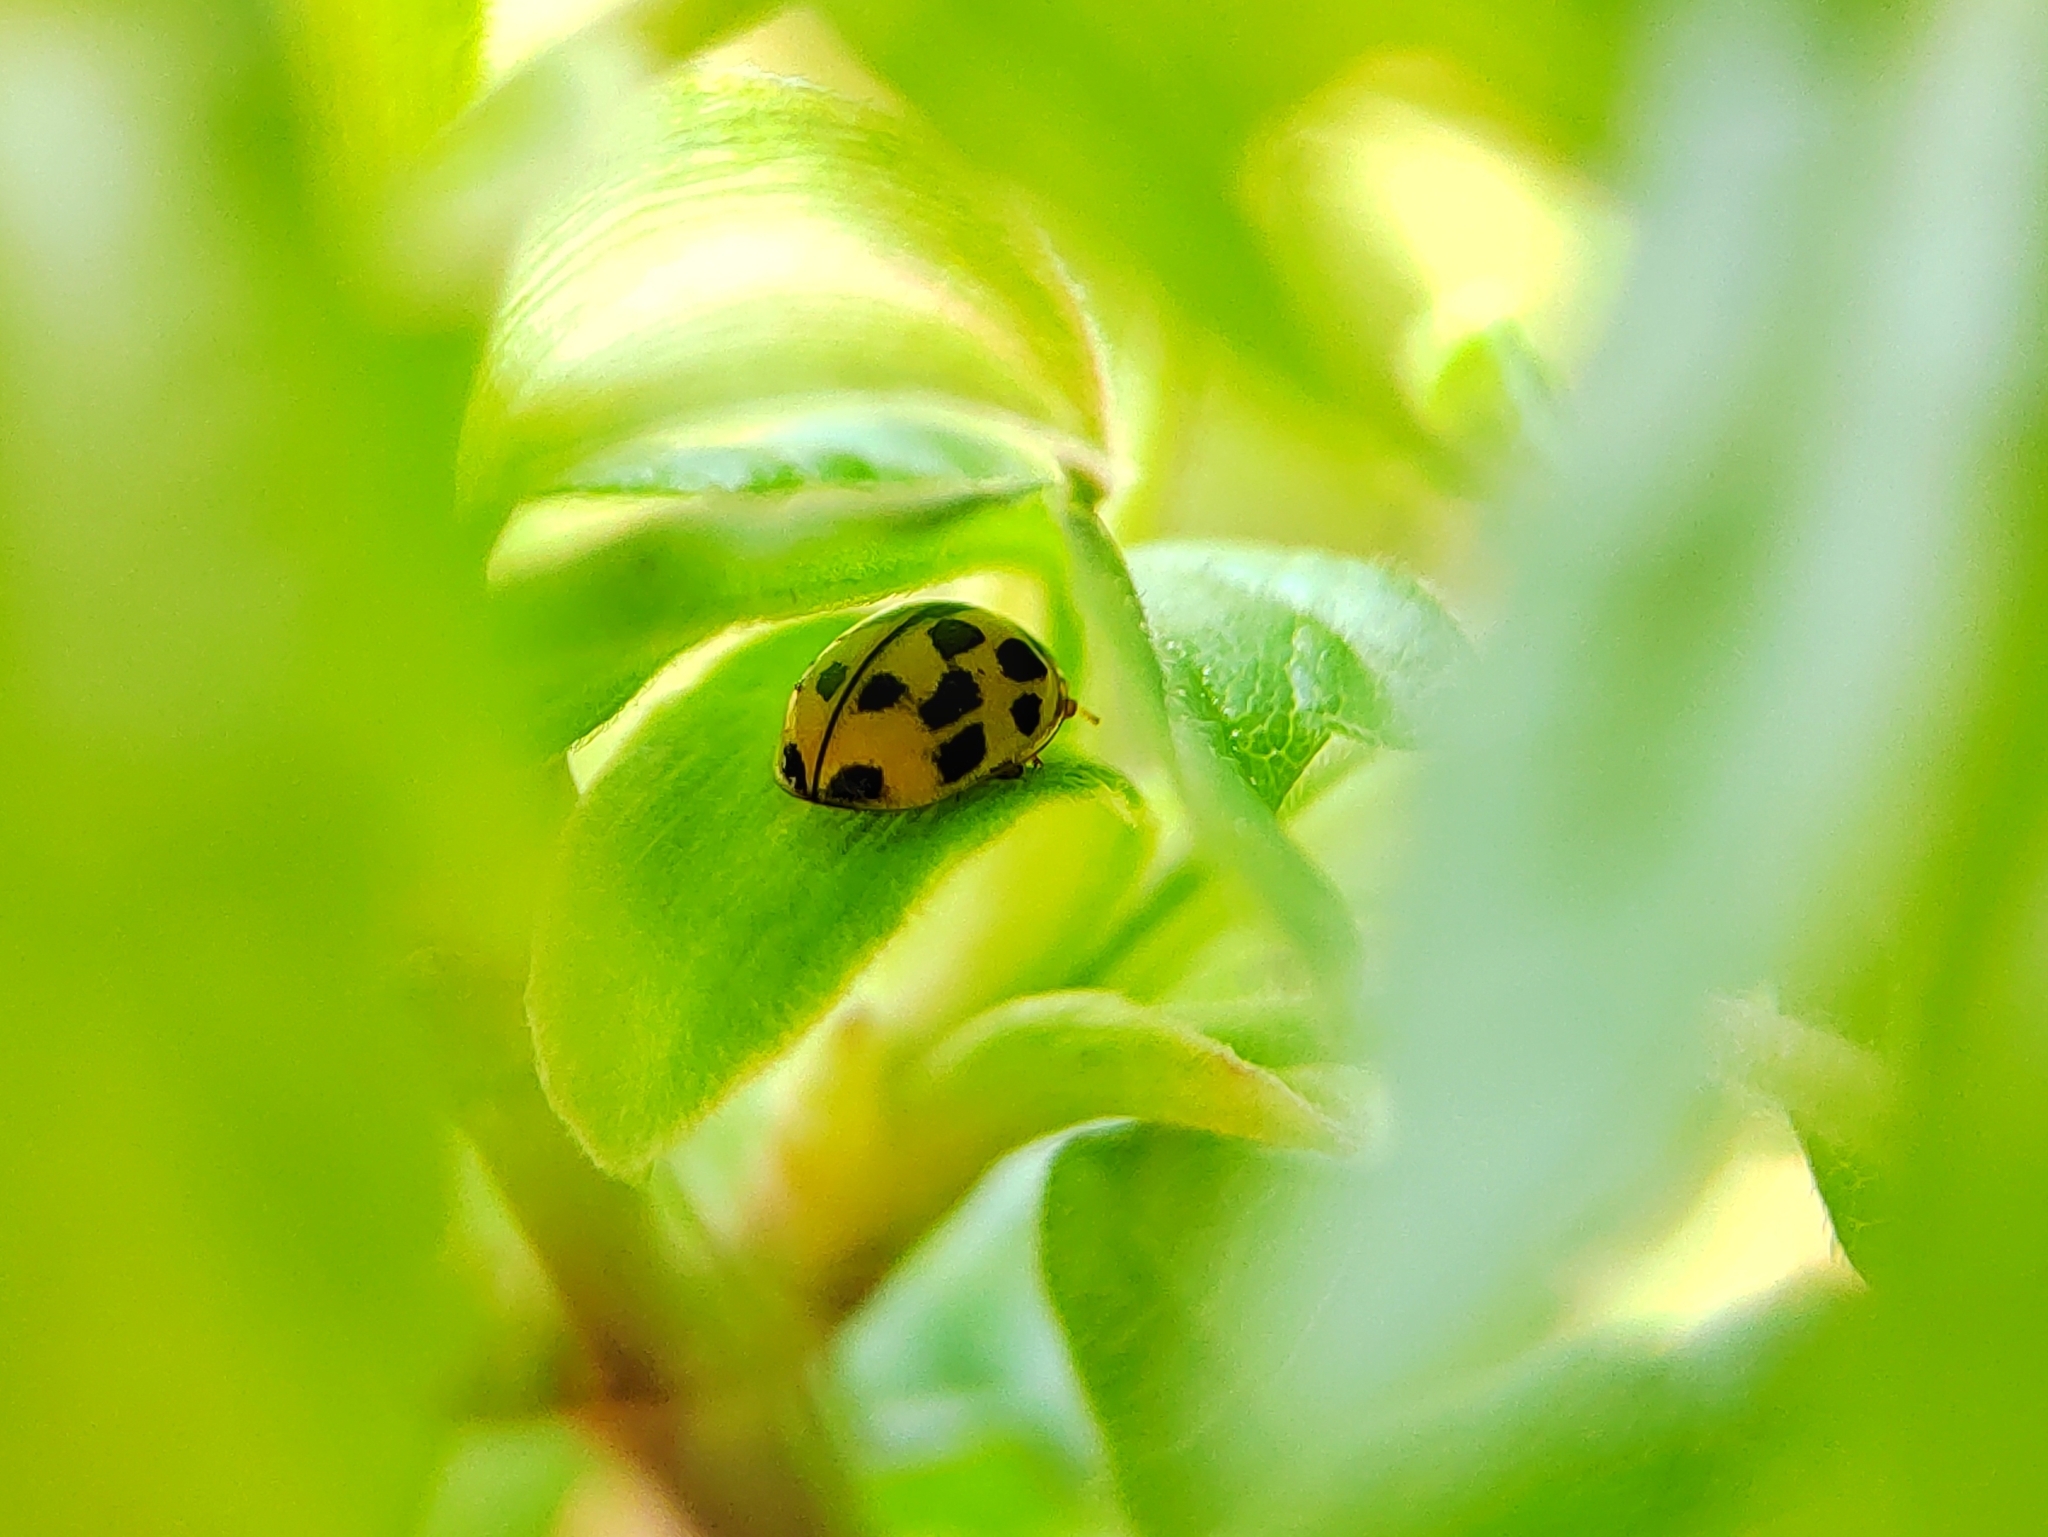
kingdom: Animalia
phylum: Arthropoda
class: Insecta
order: Coleoptera
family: Coccinellidae
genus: Propylaea
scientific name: Propylaea quatuordecimpunctata
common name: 14-spotted ladybird beetle
